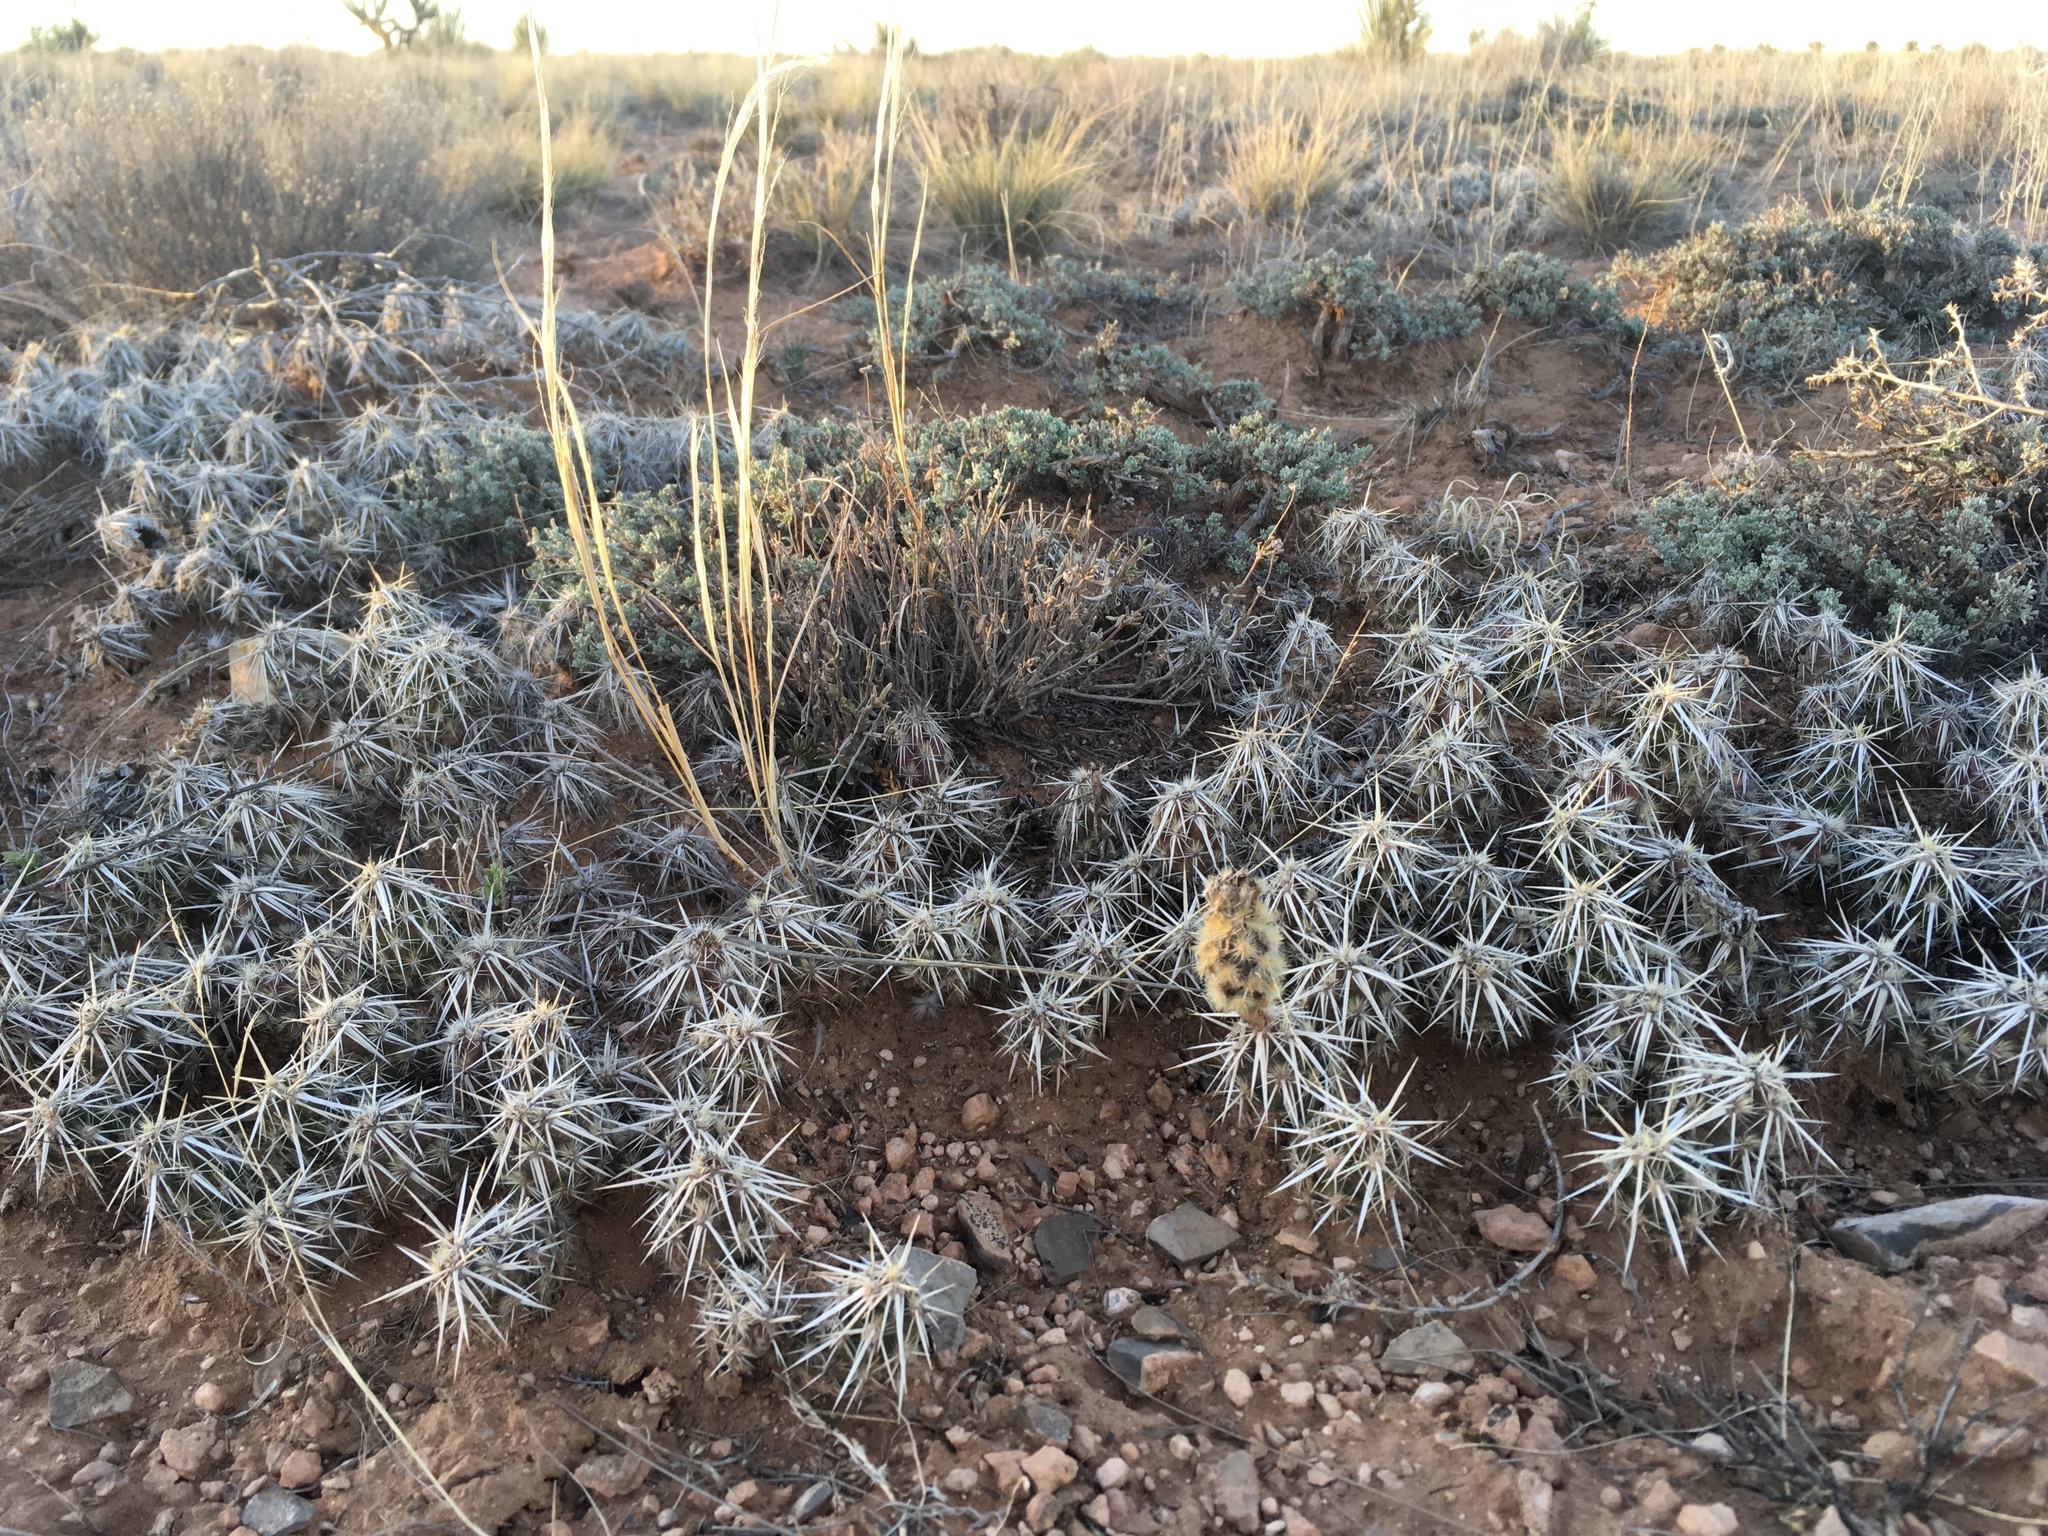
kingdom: Plantae
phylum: Tracheophyta
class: Magnoliopsida
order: Caryophyllales
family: Cactaceae
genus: Grusonia
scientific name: Grusonia clavata
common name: Club cholla
